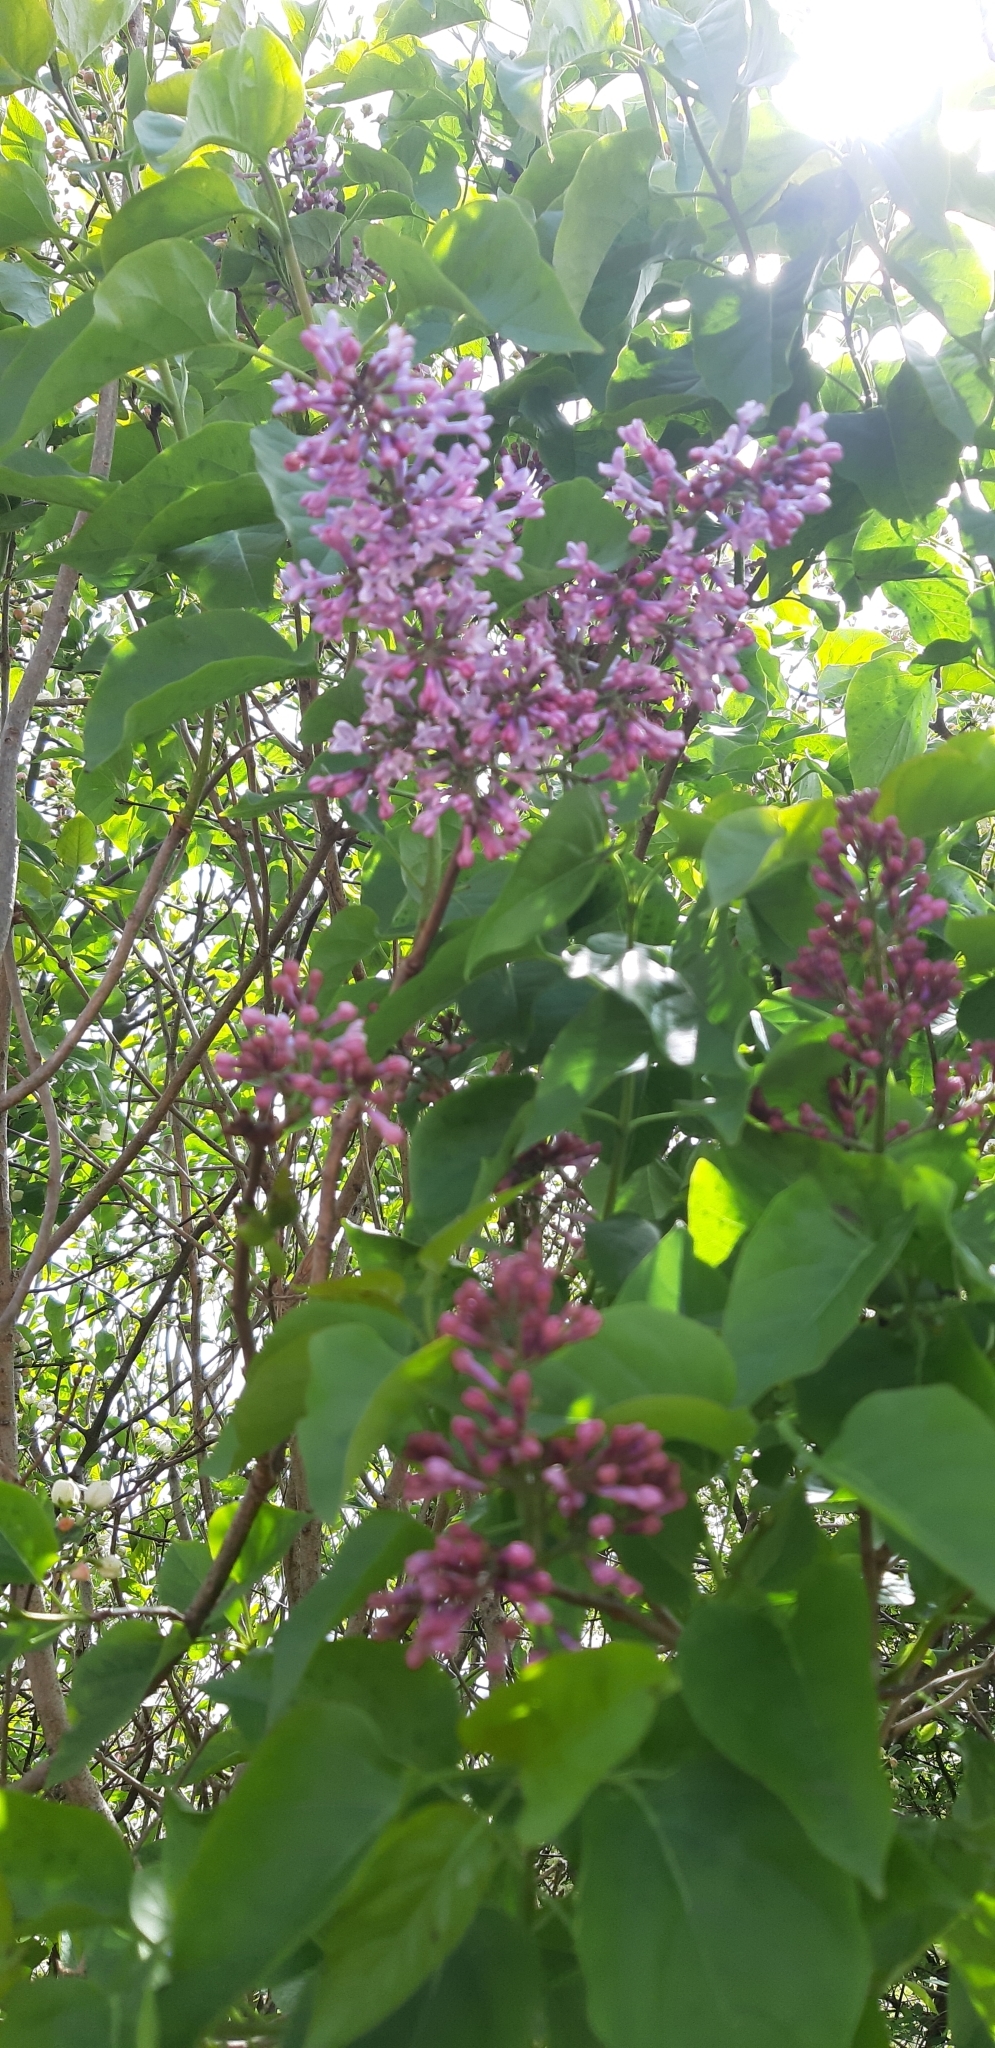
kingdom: Plantae
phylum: Tracheophyta
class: Magnoliopsida
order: Lamiales
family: Oleaceae
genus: Syringa
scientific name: Syringa vulgaris
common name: Common lilac
